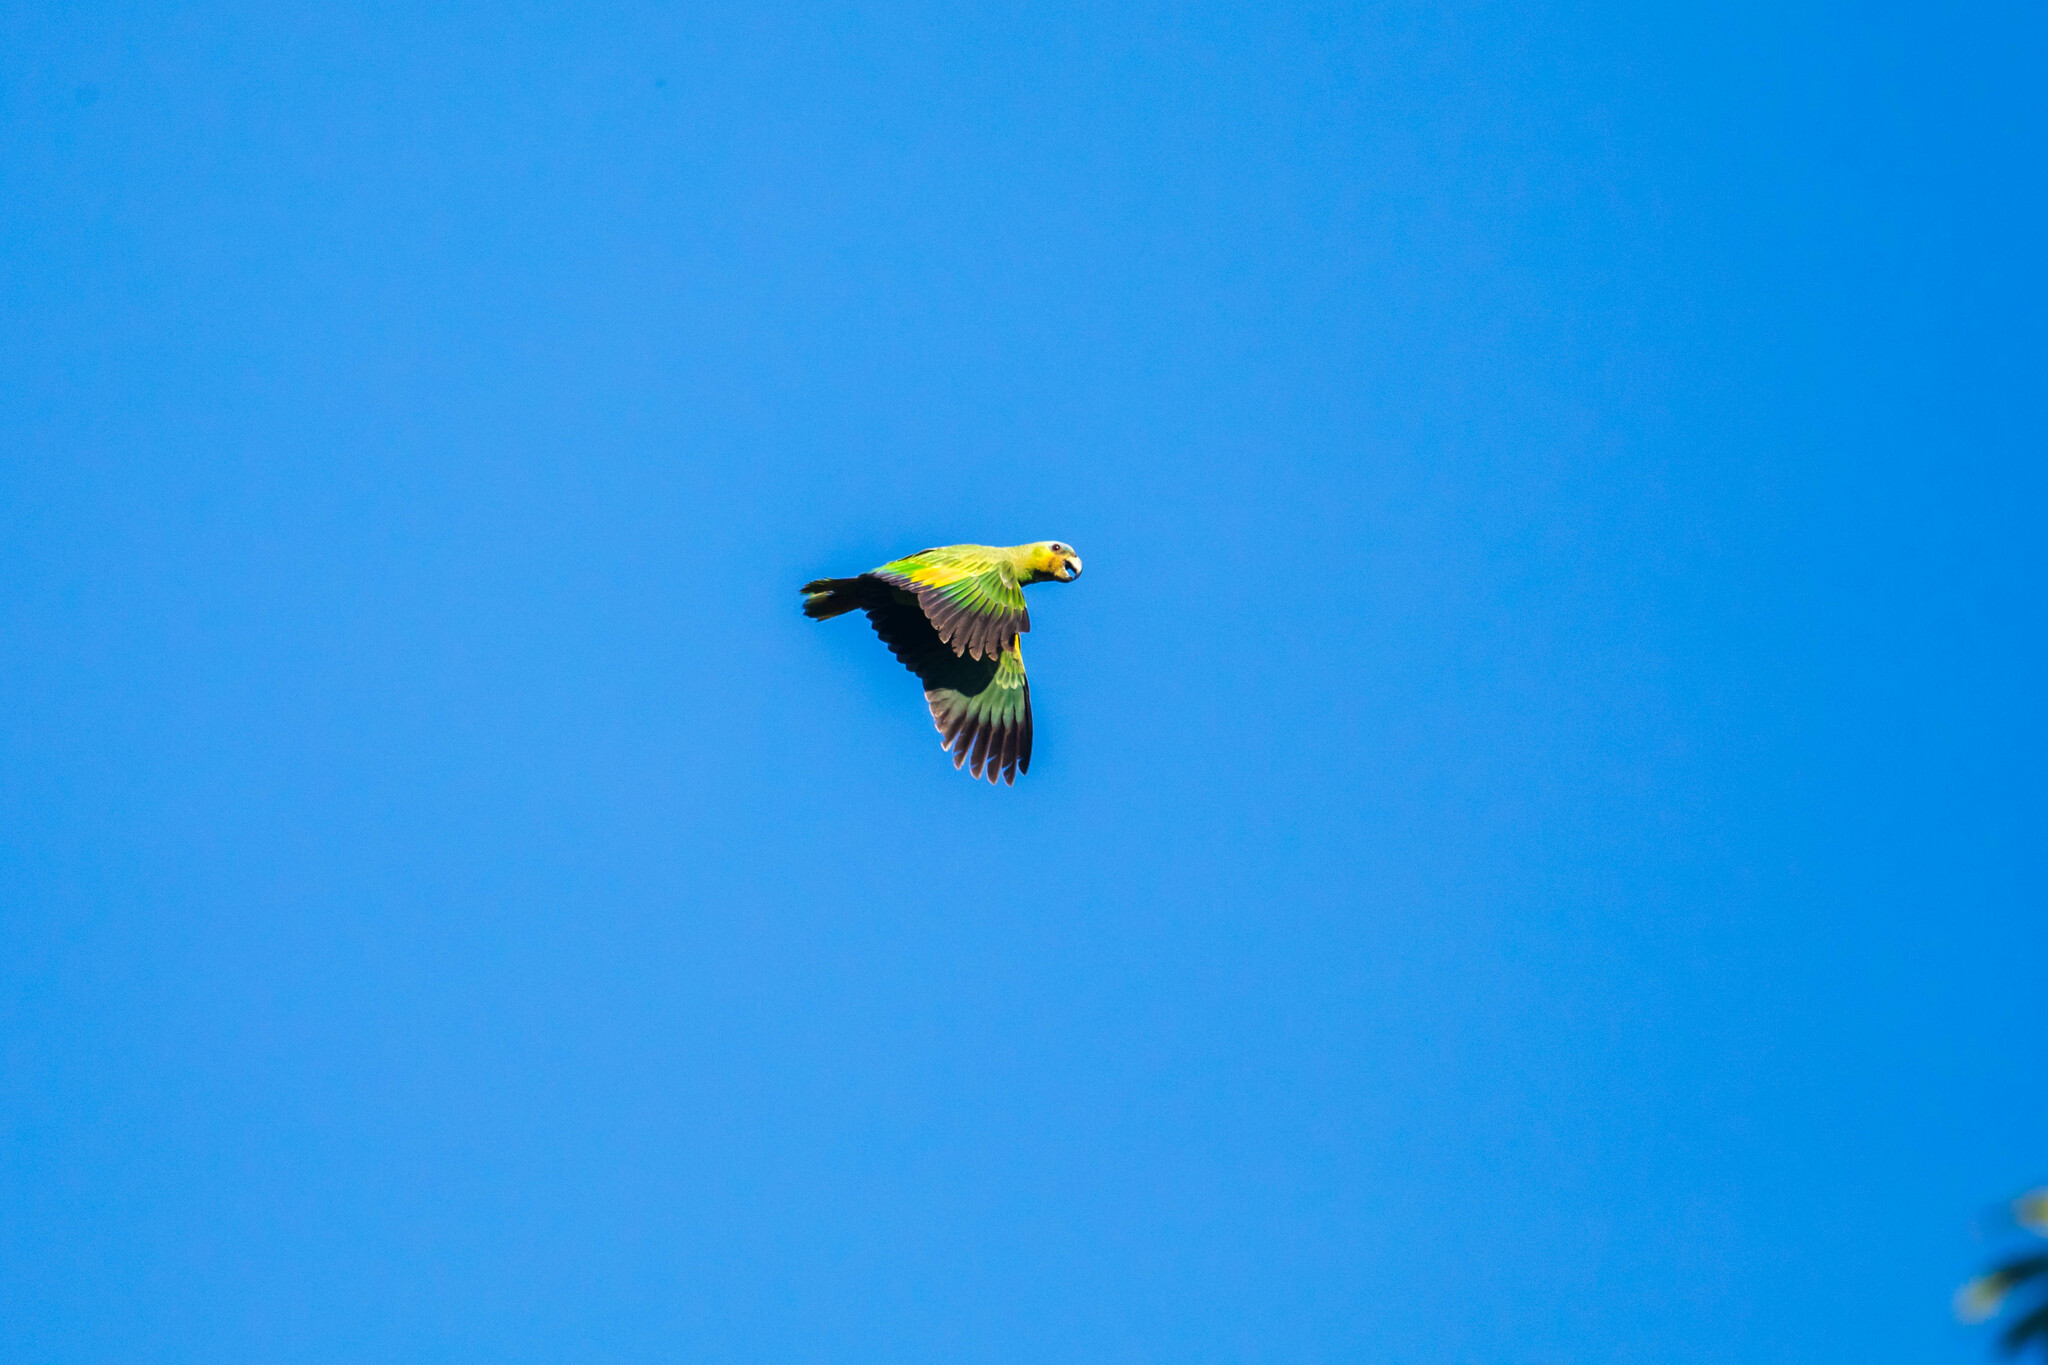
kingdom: Animalia
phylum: Chordata
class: Aves
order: Psittaciformes
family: Psittacidae
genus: Amazona
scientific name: Amazona amazonica
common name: Orange-winged amazon
